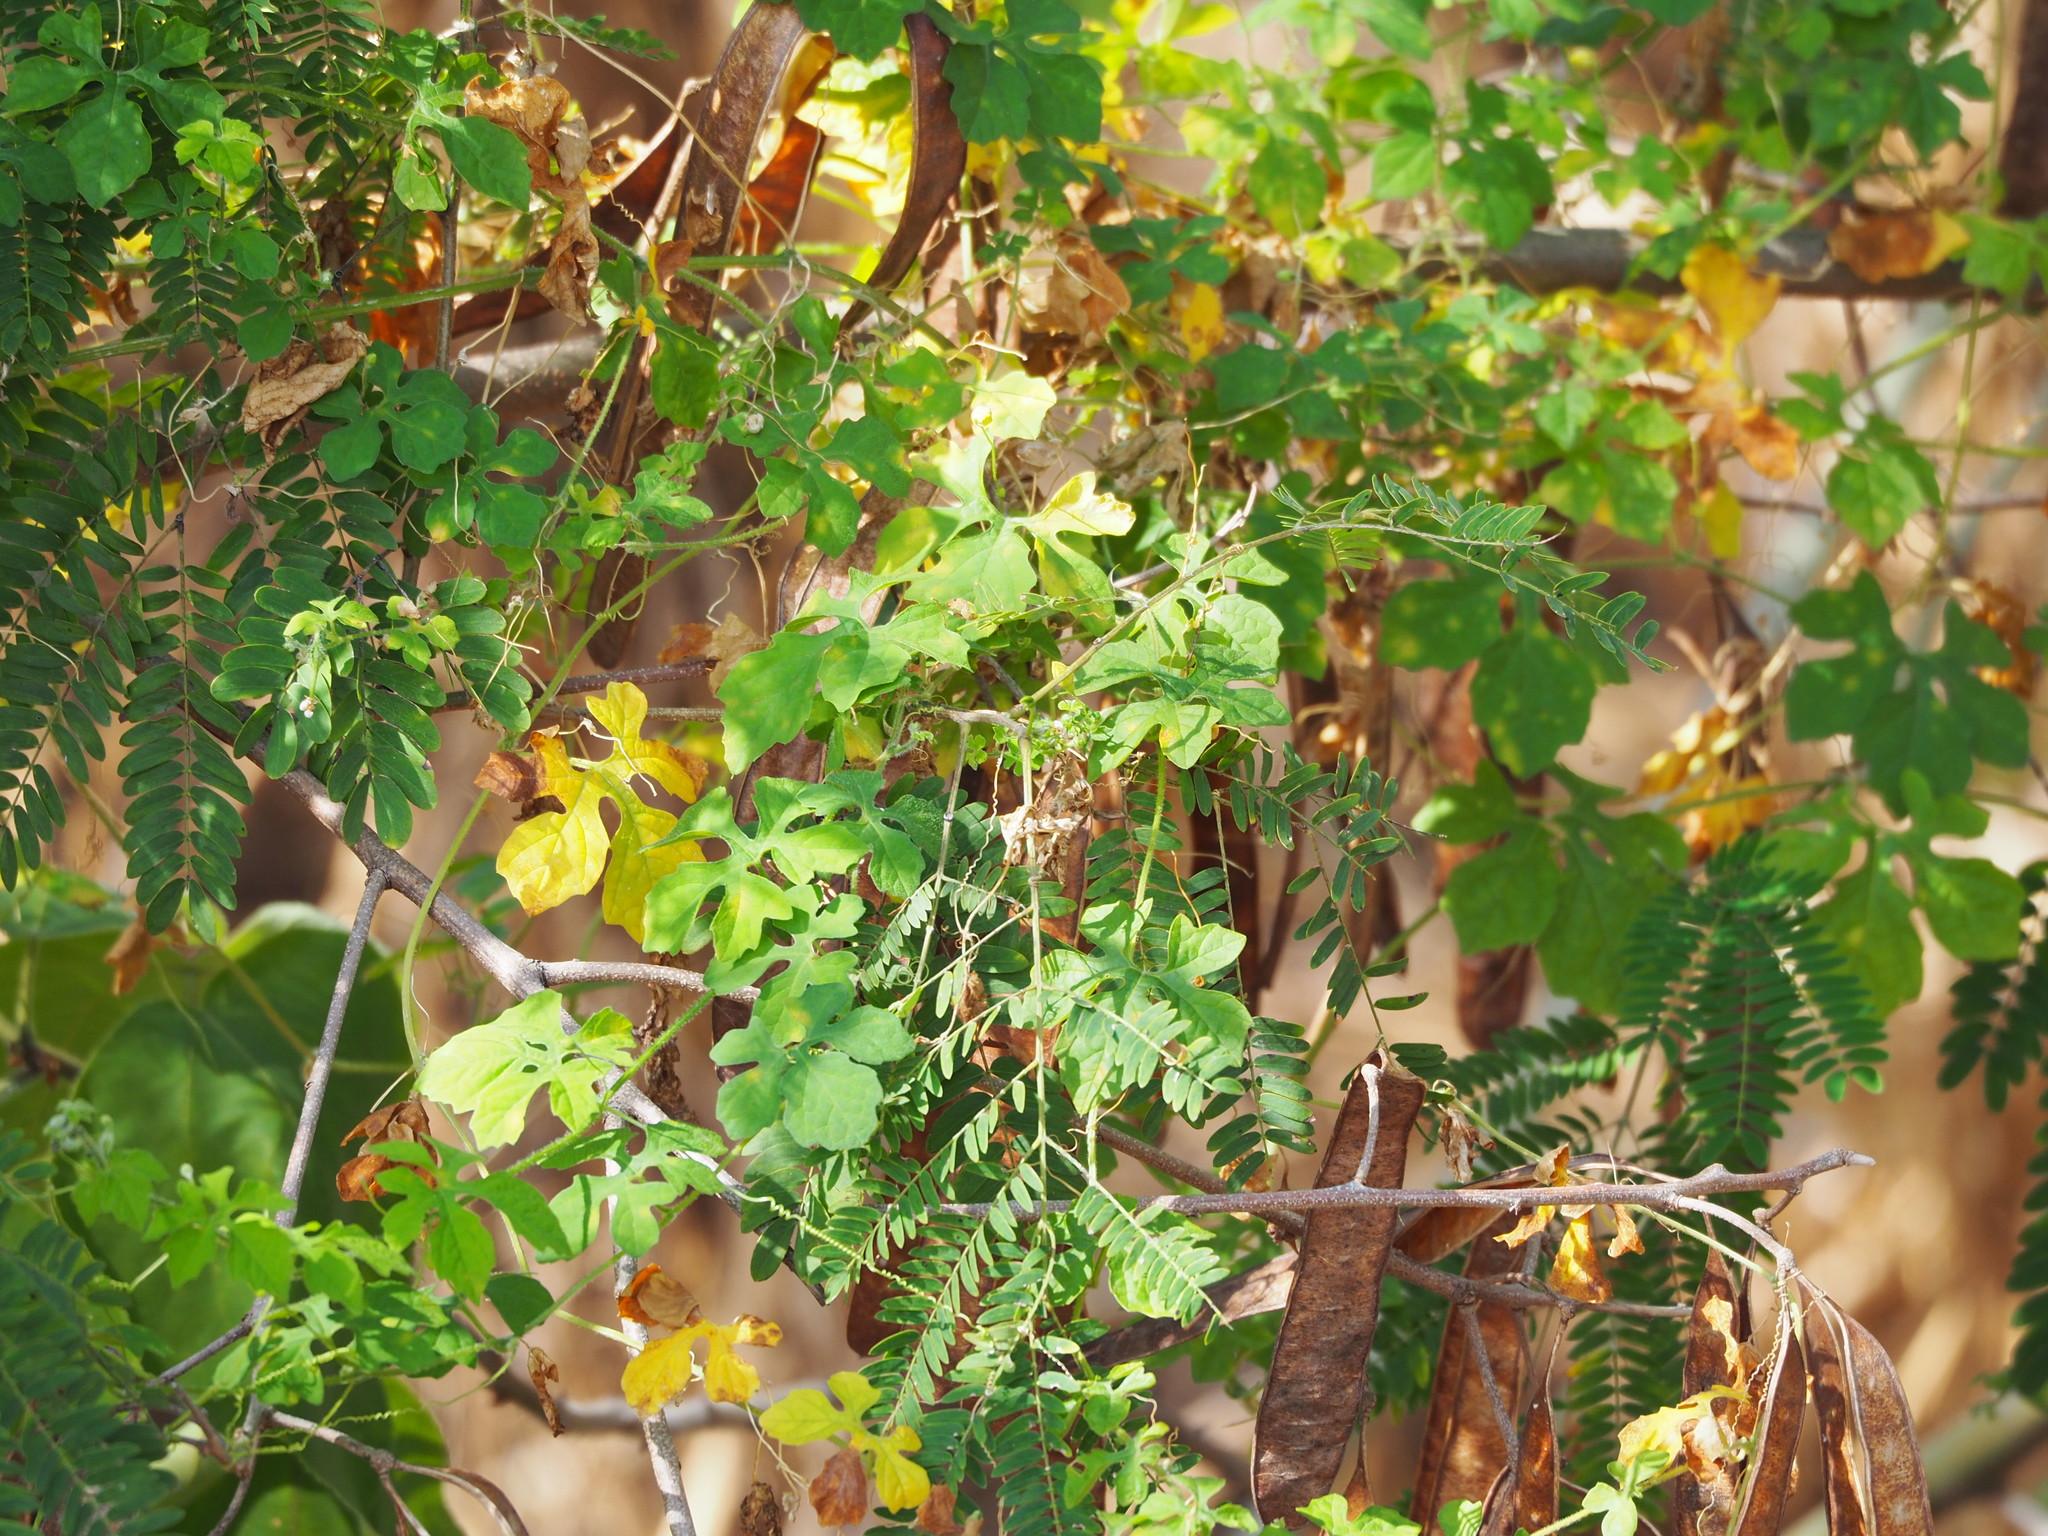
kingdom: Plantae
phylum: Tracheophyta
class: Magnoliopsida
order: Cucurbitales
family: Cucurbitaceae
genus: Momordica
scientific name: Momordica charantia
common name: Balsampear
